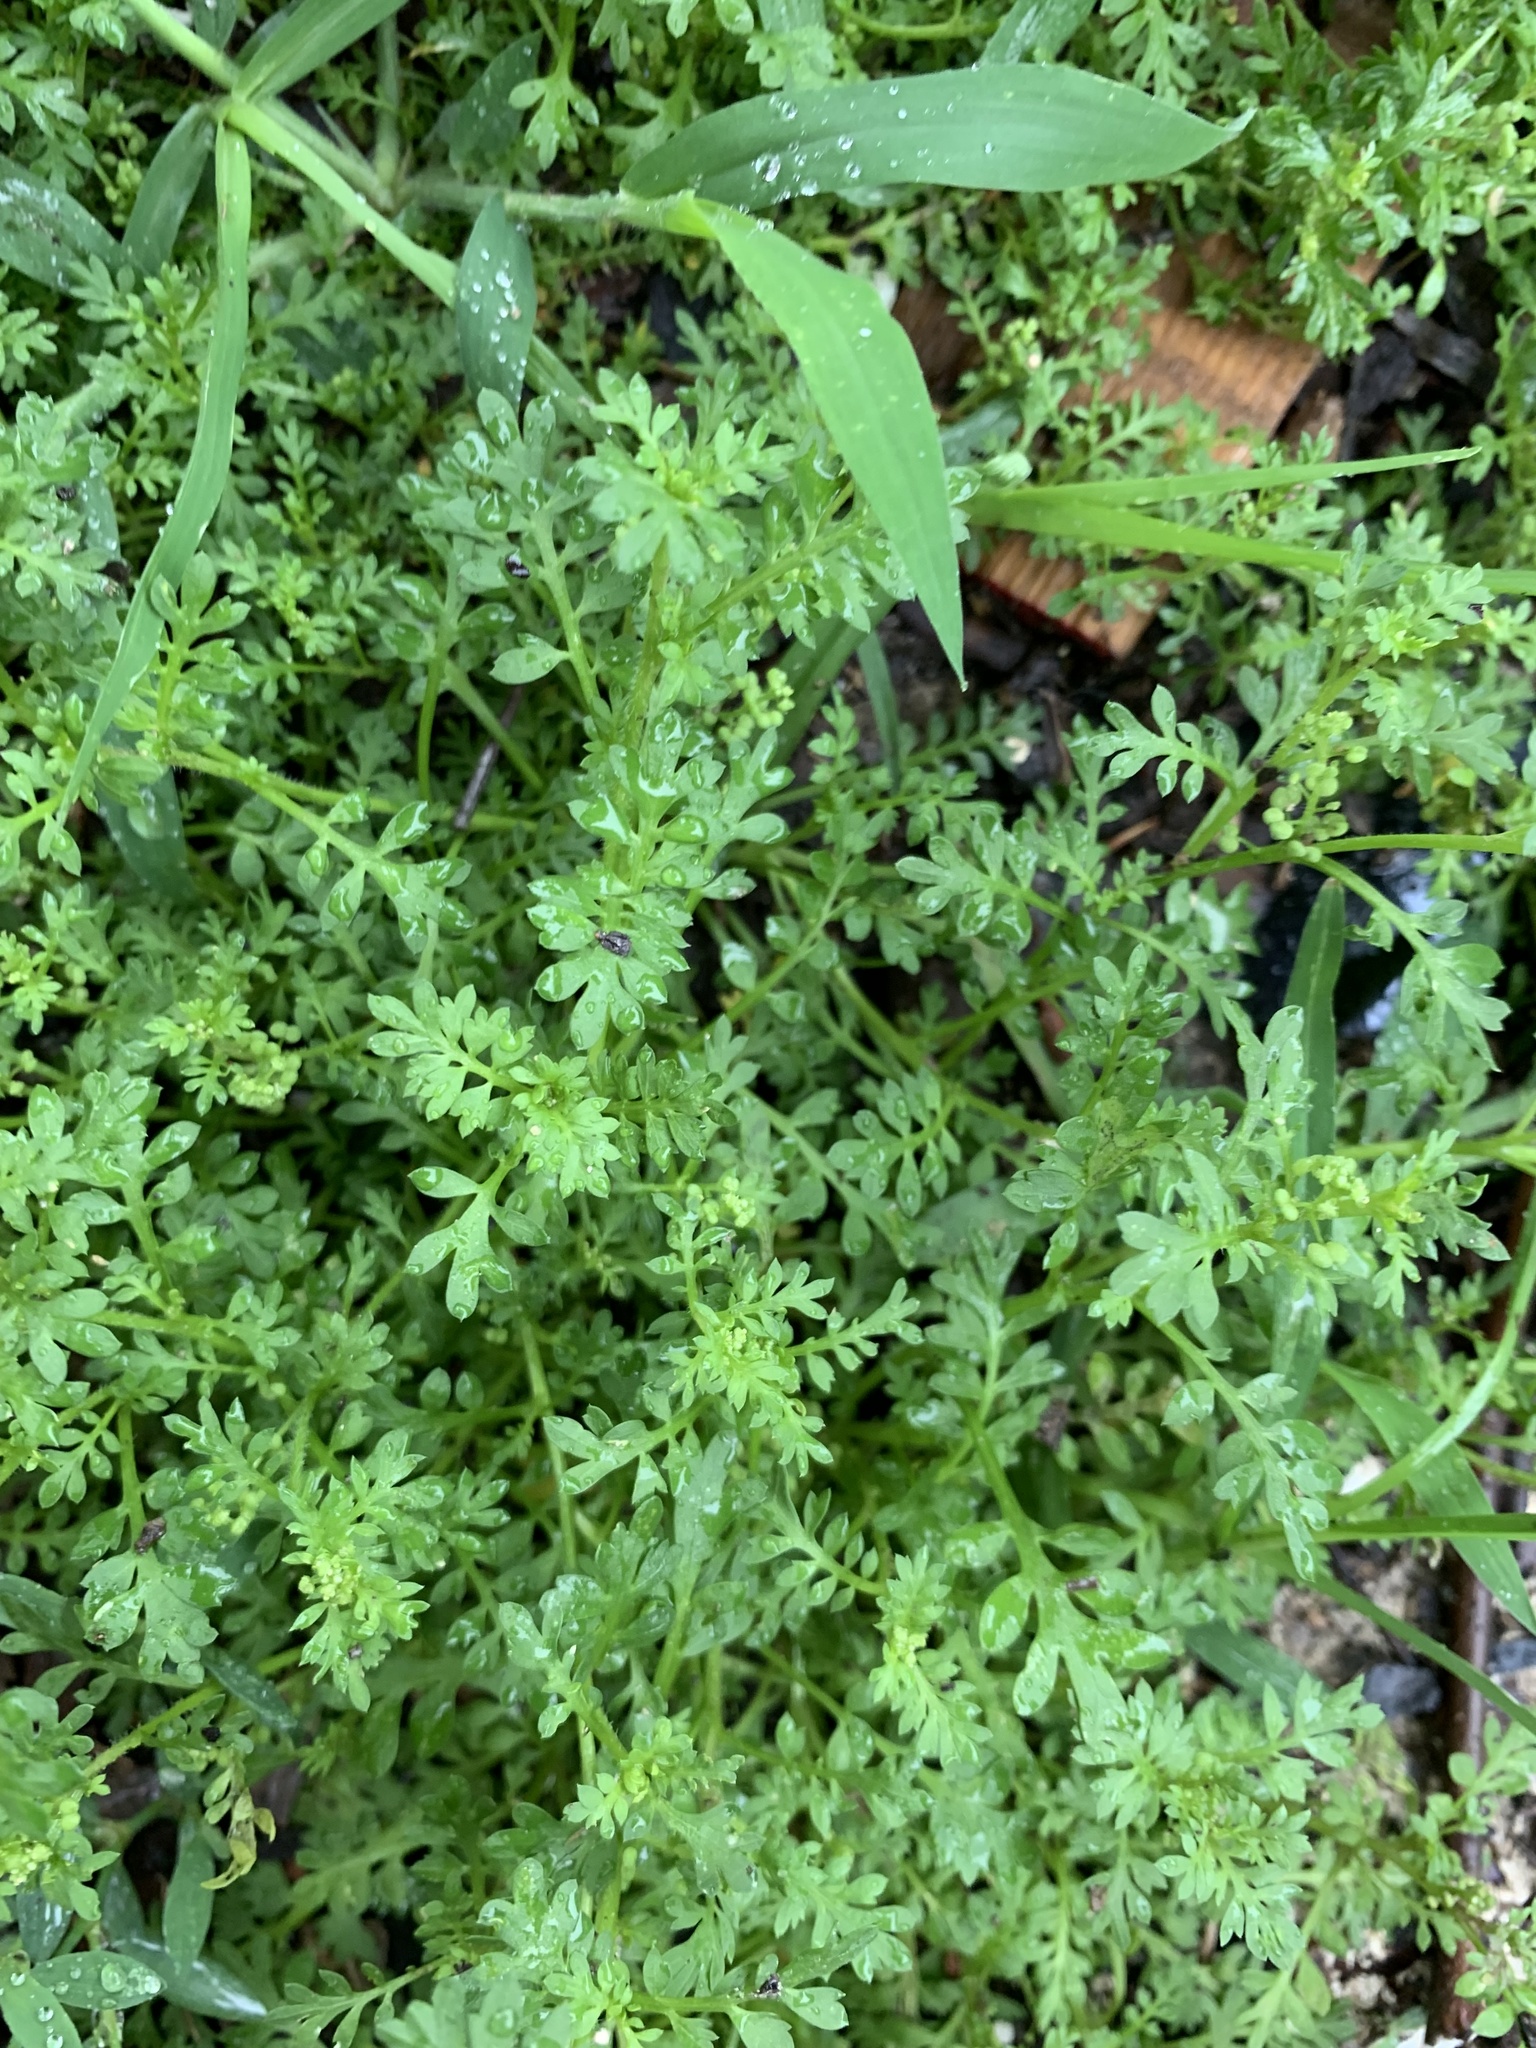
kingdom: Plantae
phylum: Tracheophyta
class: Magnoliopsida
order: Brassicales
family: Brassicaceae
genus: Lepidium
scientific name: Lepidium didymum
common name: Lesser swinecress
